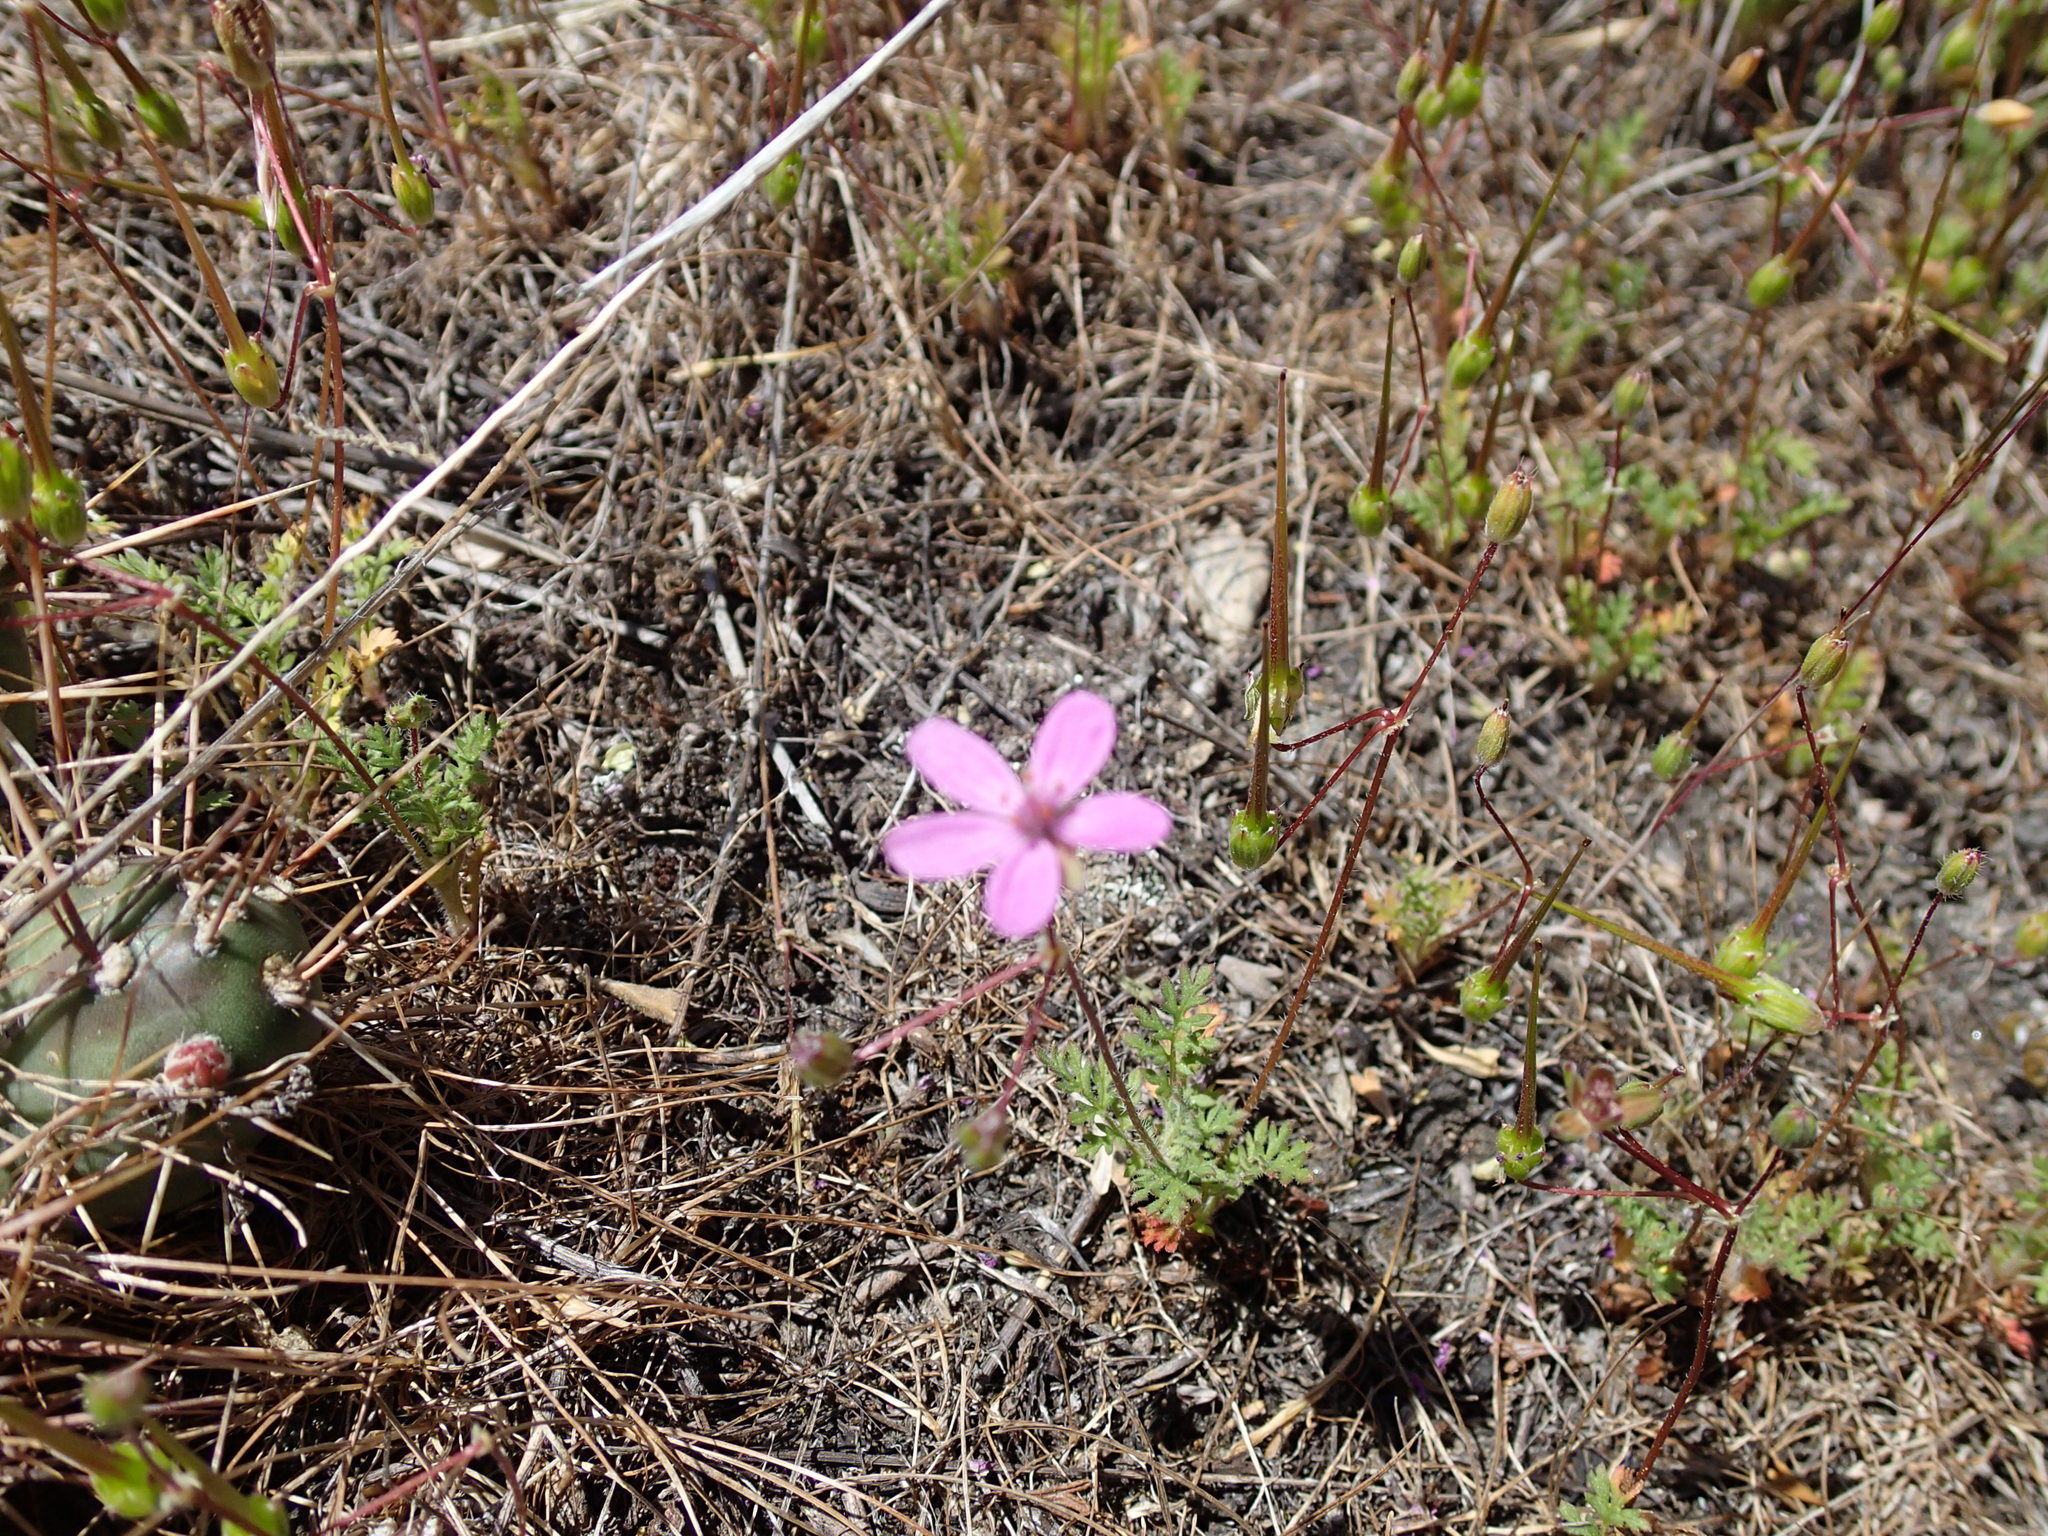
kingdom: Plantae
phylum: Tracheophyta
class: Magnoliopsida
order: Geraniales
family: Geraniaceae
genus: Erodium
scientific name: Erodium cicutarium
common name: Common stork's-bill
